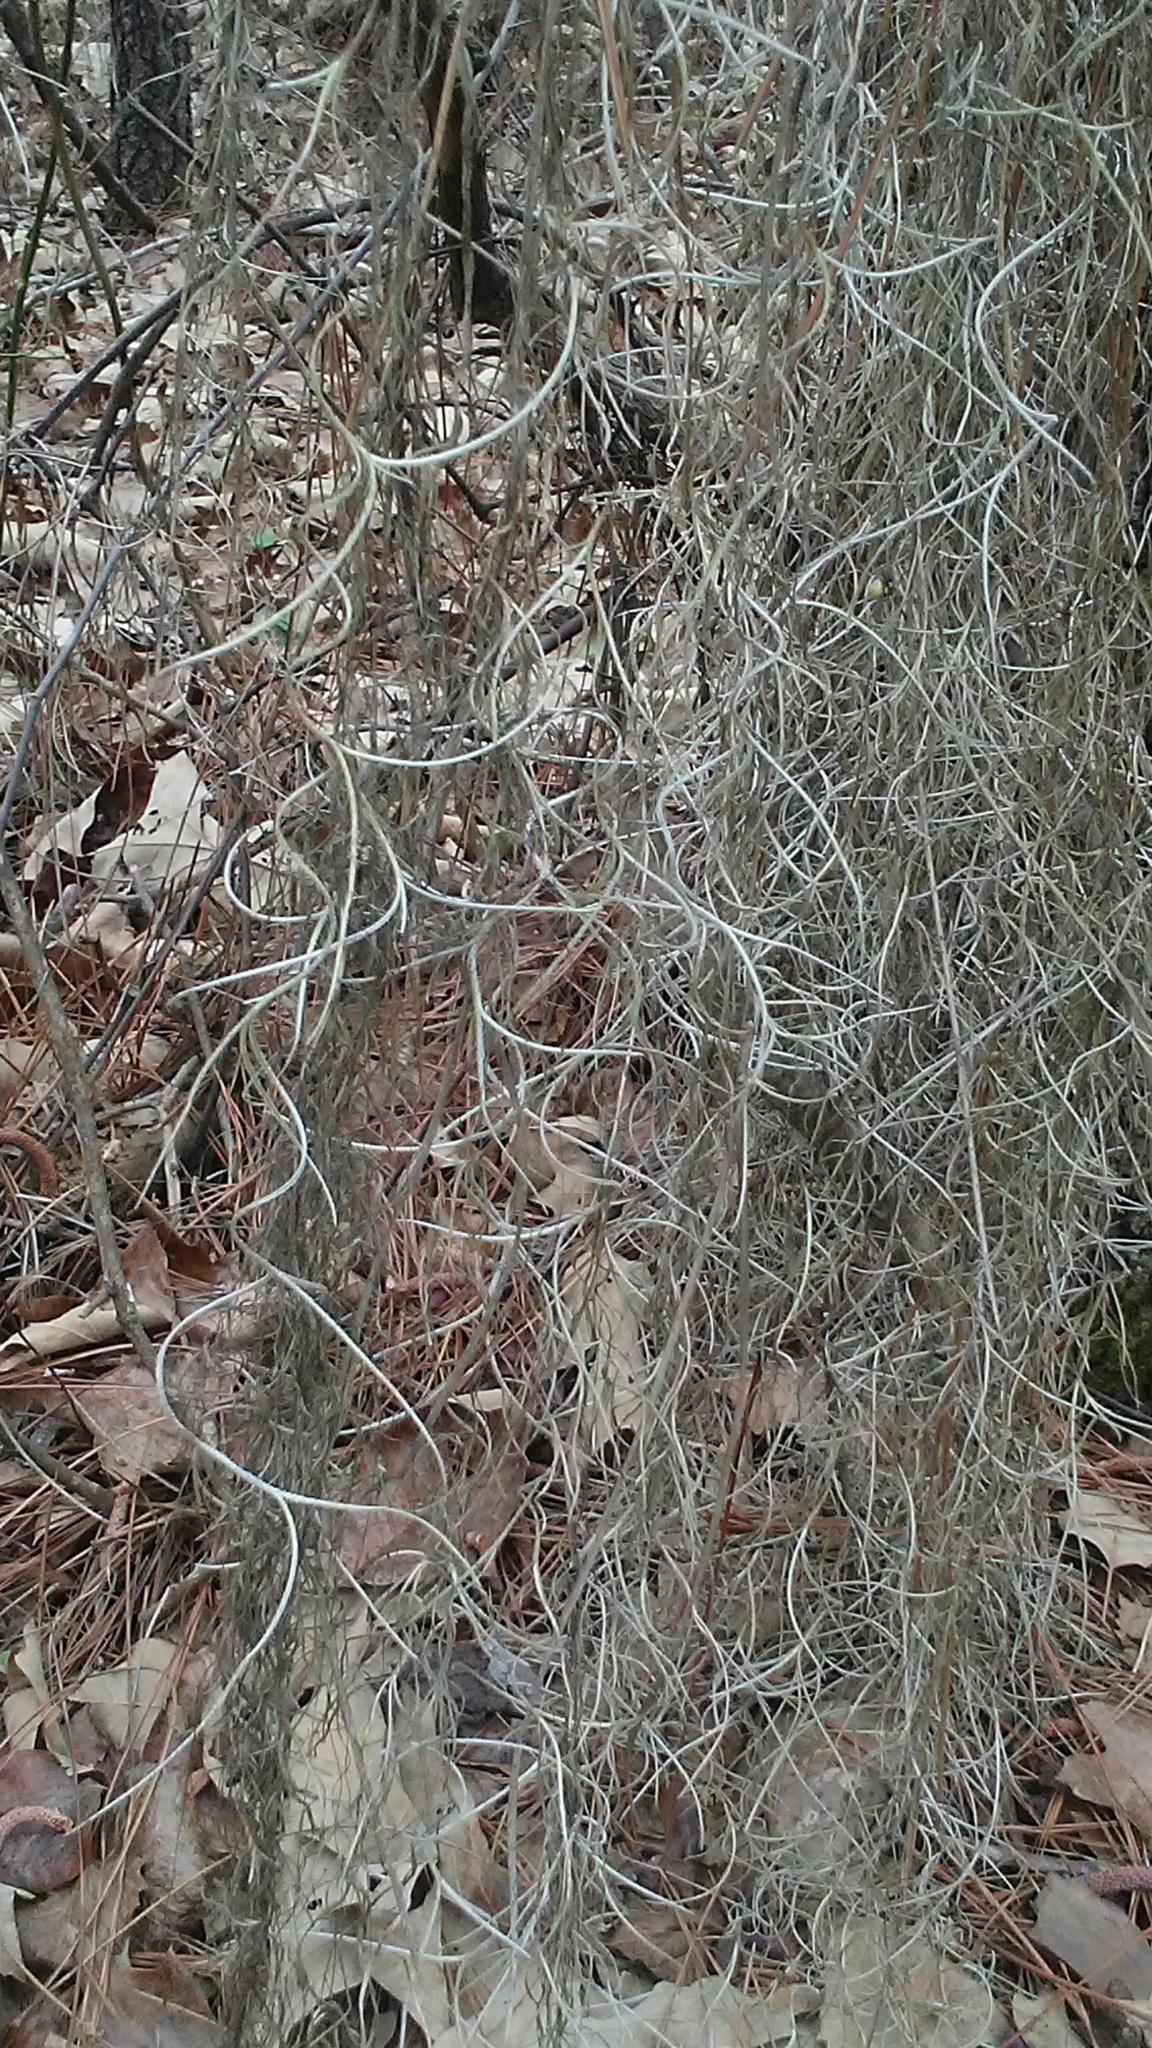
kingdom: Plantae
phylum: Tracheophyta
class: Liliopsida
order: Poales
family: Bromeliaceae
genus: Tillandsia
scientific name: Tillandsia usneoides
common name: Spanish moss
